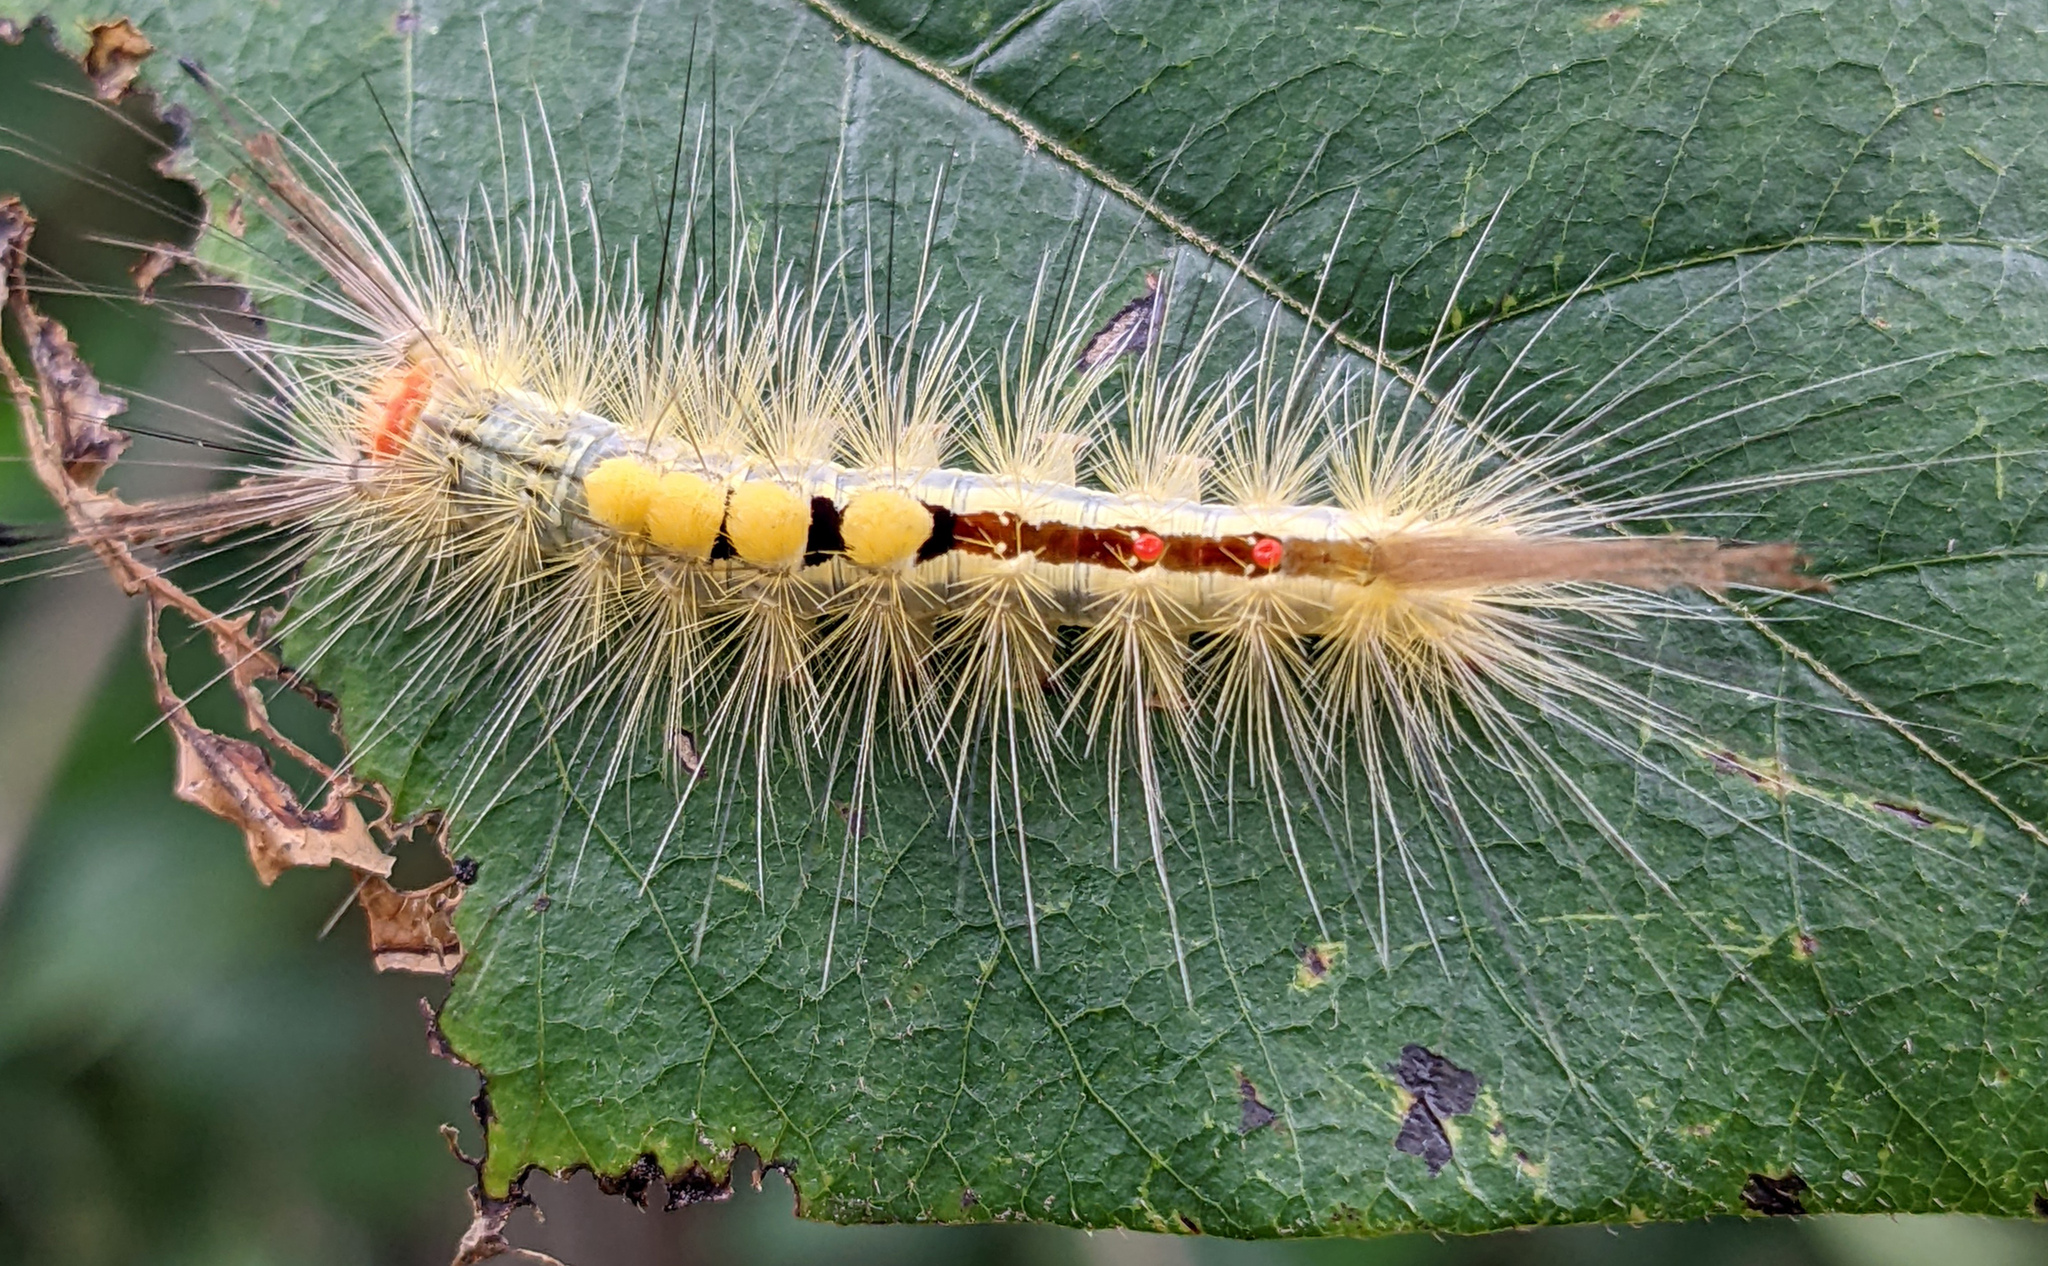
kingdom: Animalia
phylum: Arthropoda
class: Insecta
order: Lepidoptera
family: Erebidae
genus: Orgyia
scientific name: Orgyia leucostigma
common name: White-marked tussock moth
